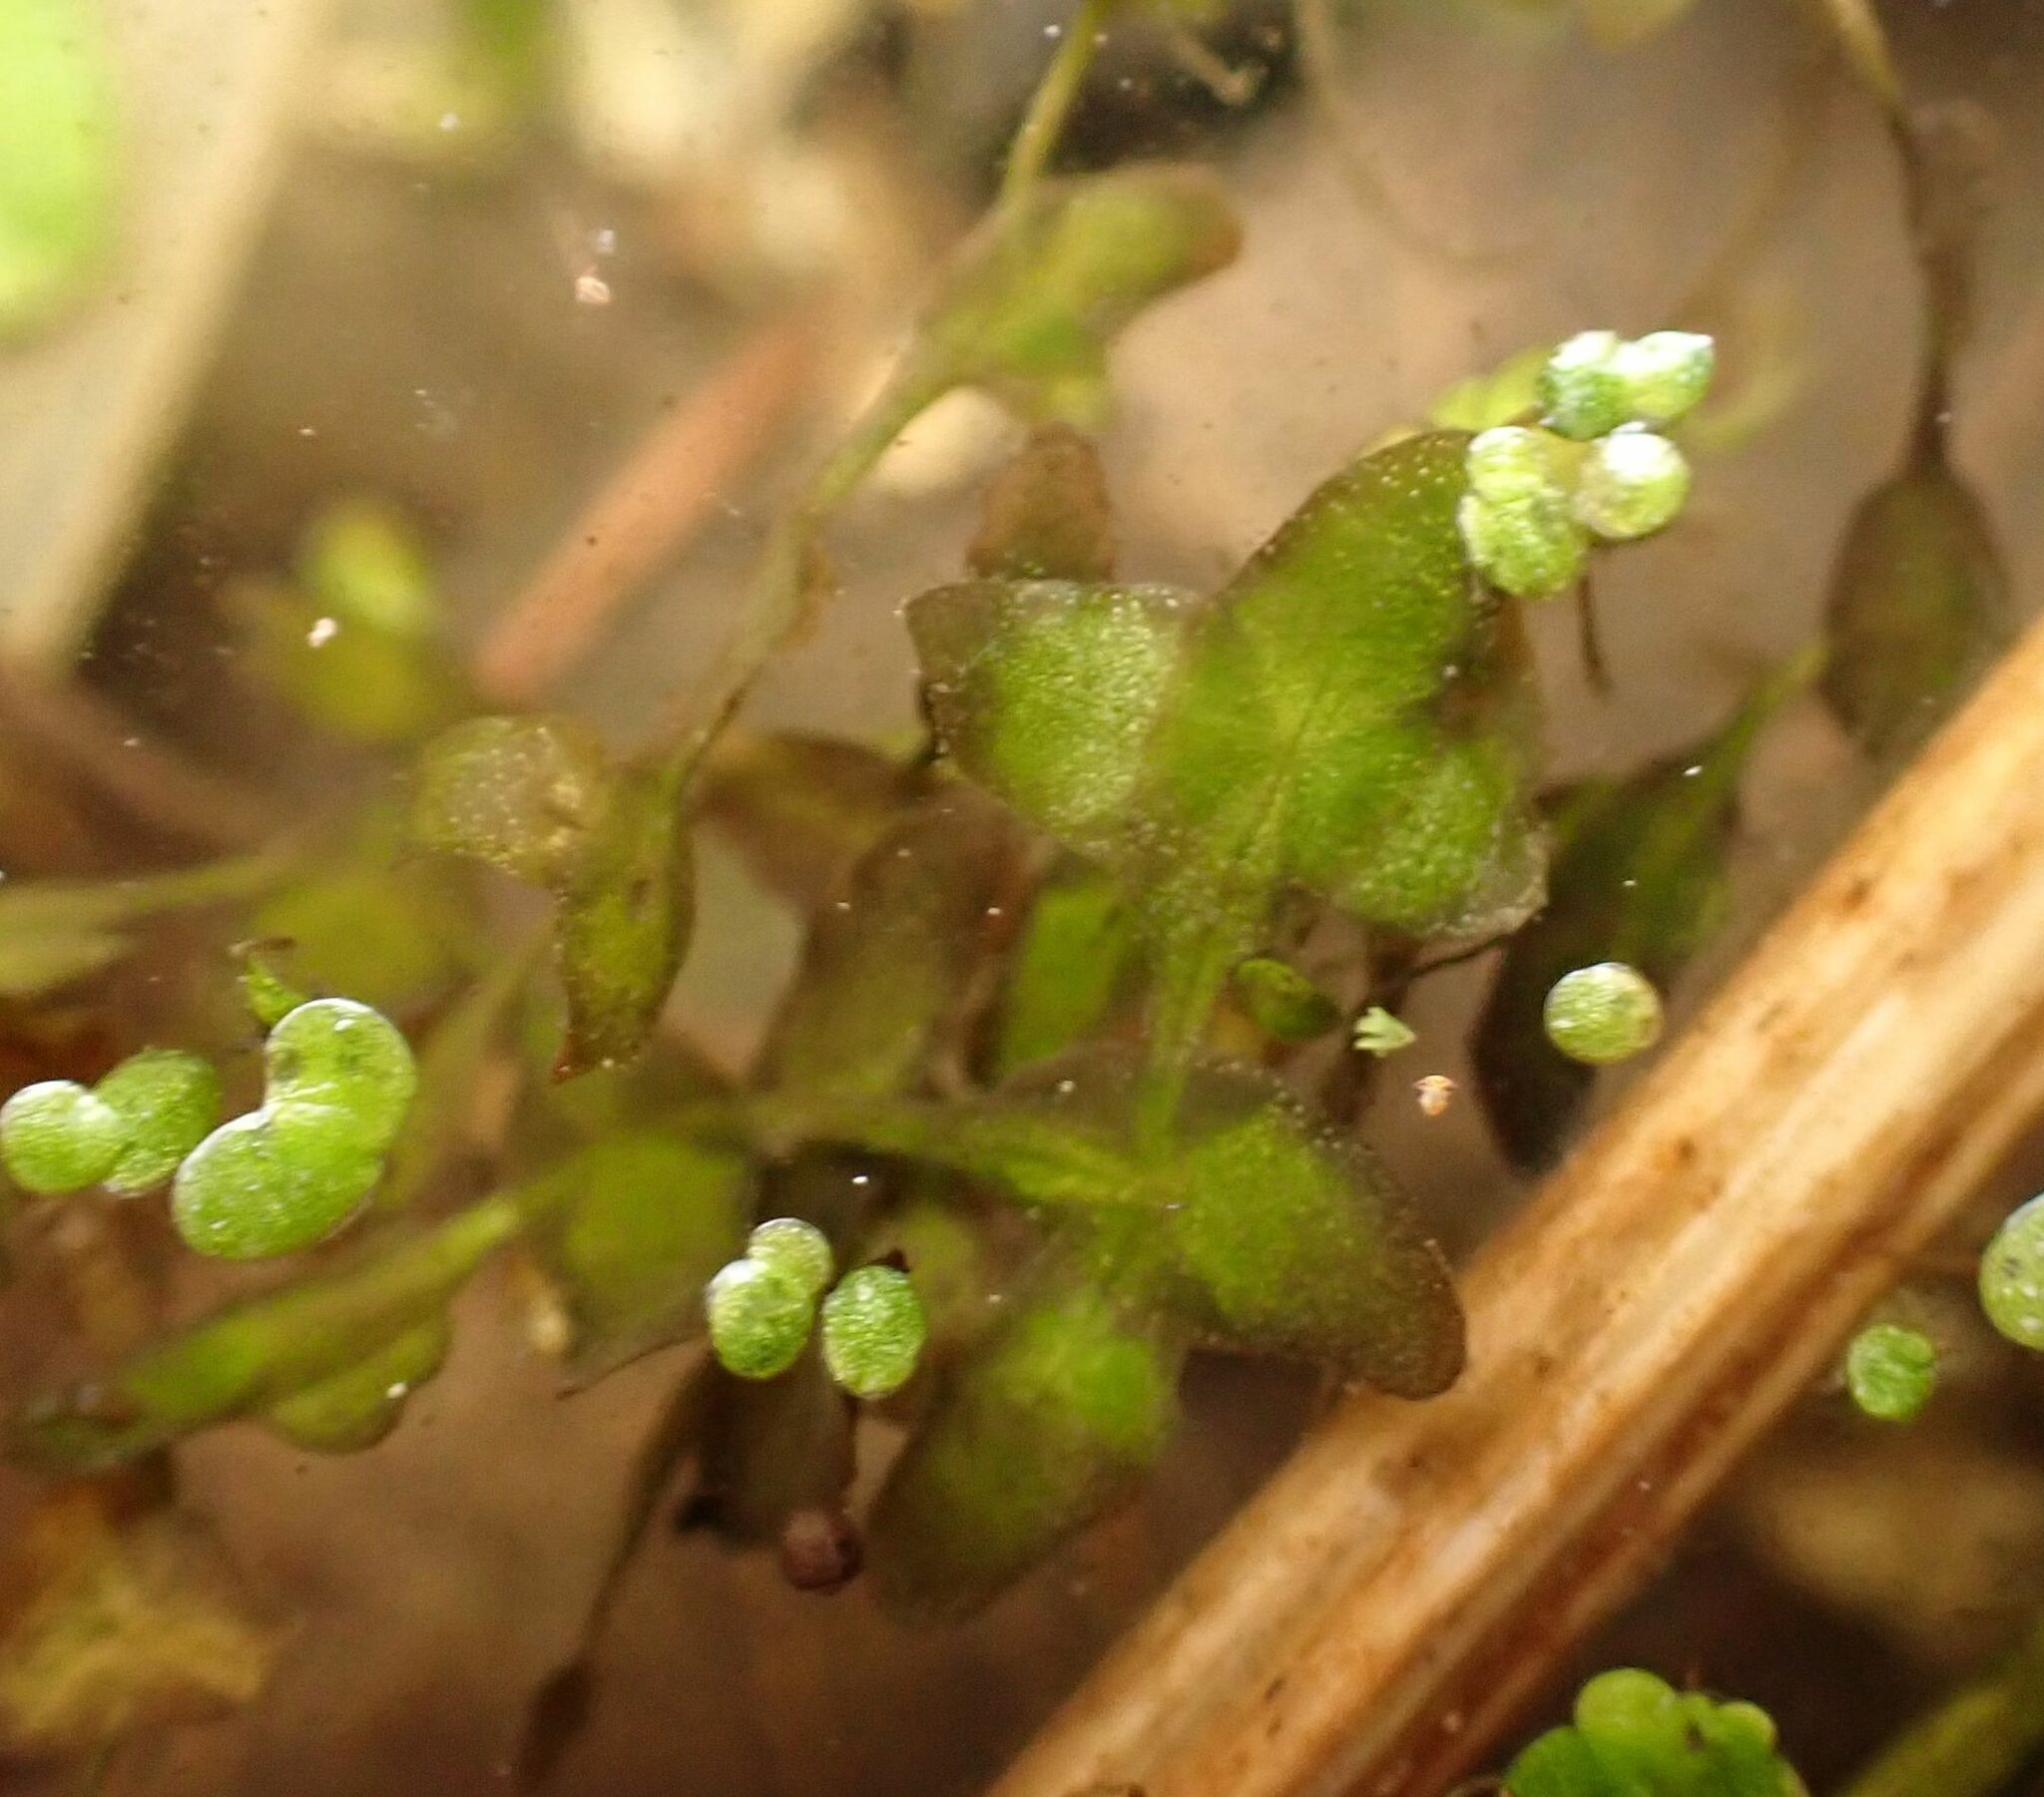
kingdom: Plantae
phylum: Tracheophyta
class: Liliopsida
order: Alismatales
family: Araceae
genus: Lemna
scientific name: Lemna trisulca
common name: Ivy-leaved duckweed
